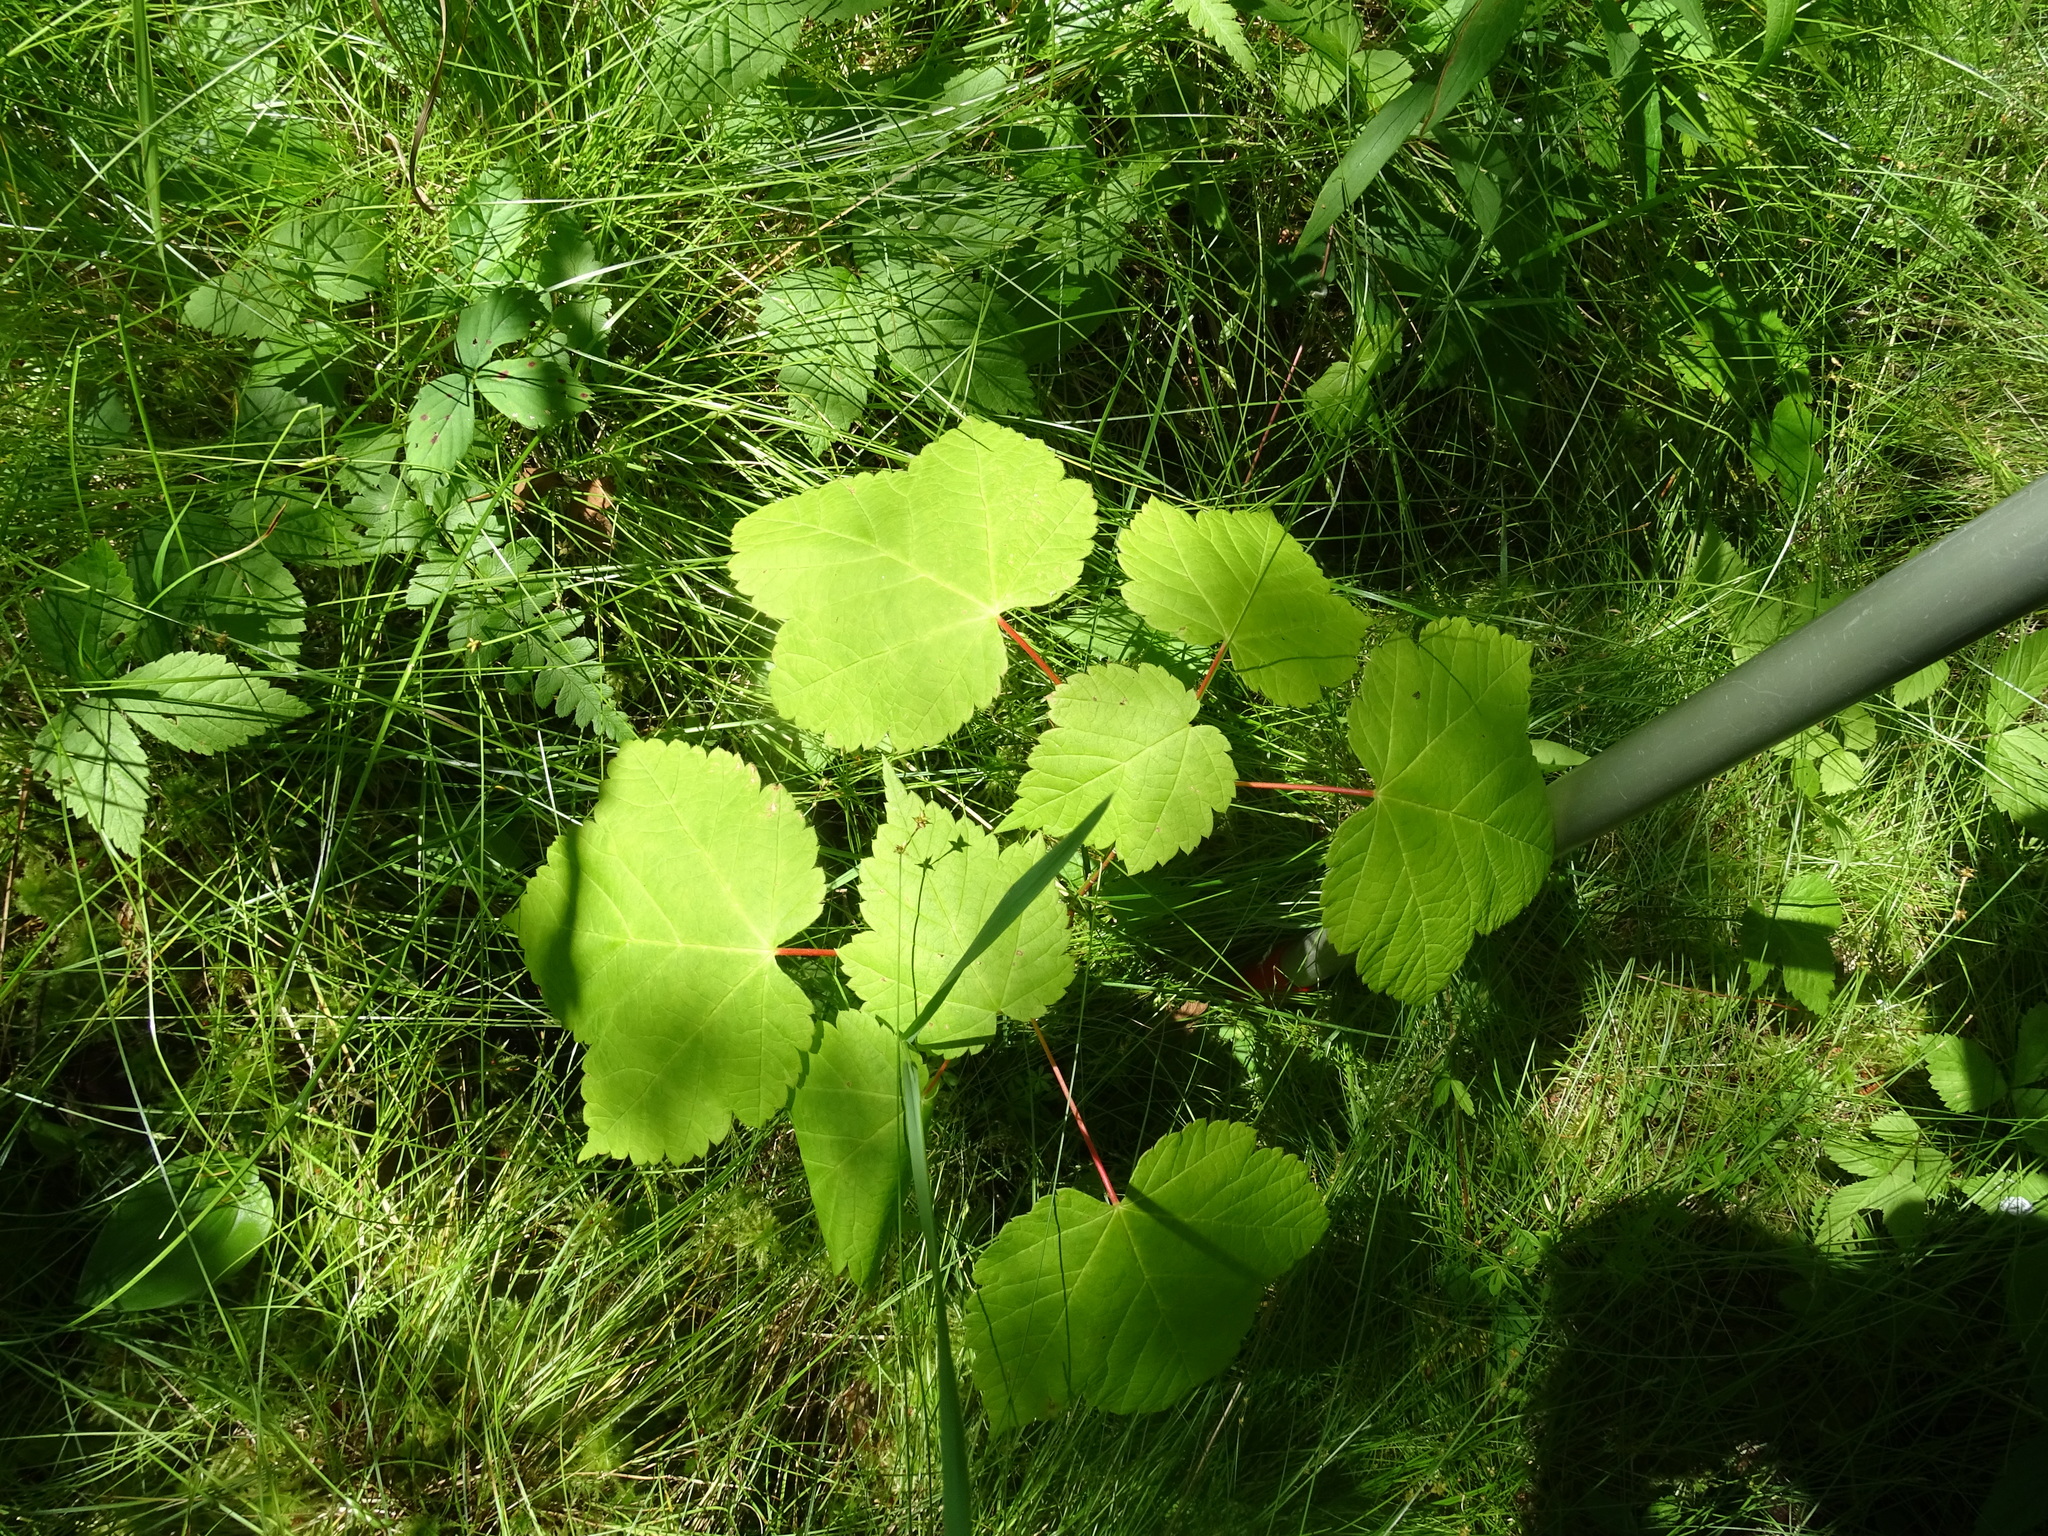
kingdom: Plantae
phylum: Tracheophyta
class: Magnoliopsida
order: Sapindales
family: Sapindaceae
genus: Acer
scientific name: Acer spicatum
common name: Mountain maple
